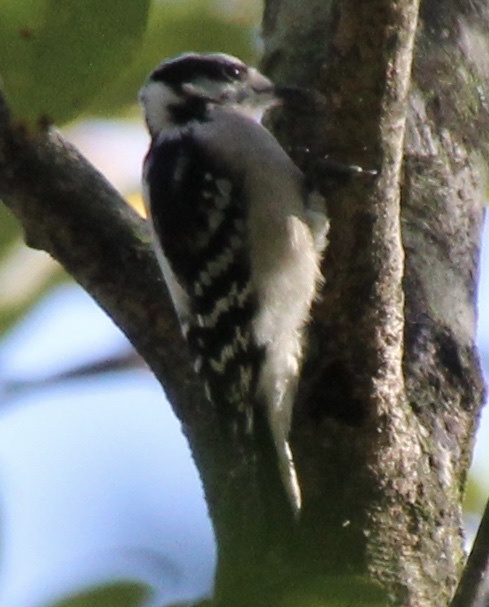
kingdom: Animalia
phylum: Chordata
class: Aves
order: Piciformes
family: Picidae
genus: Dryobates
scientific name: Dryobates pubescens
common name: Downy woodpecker
